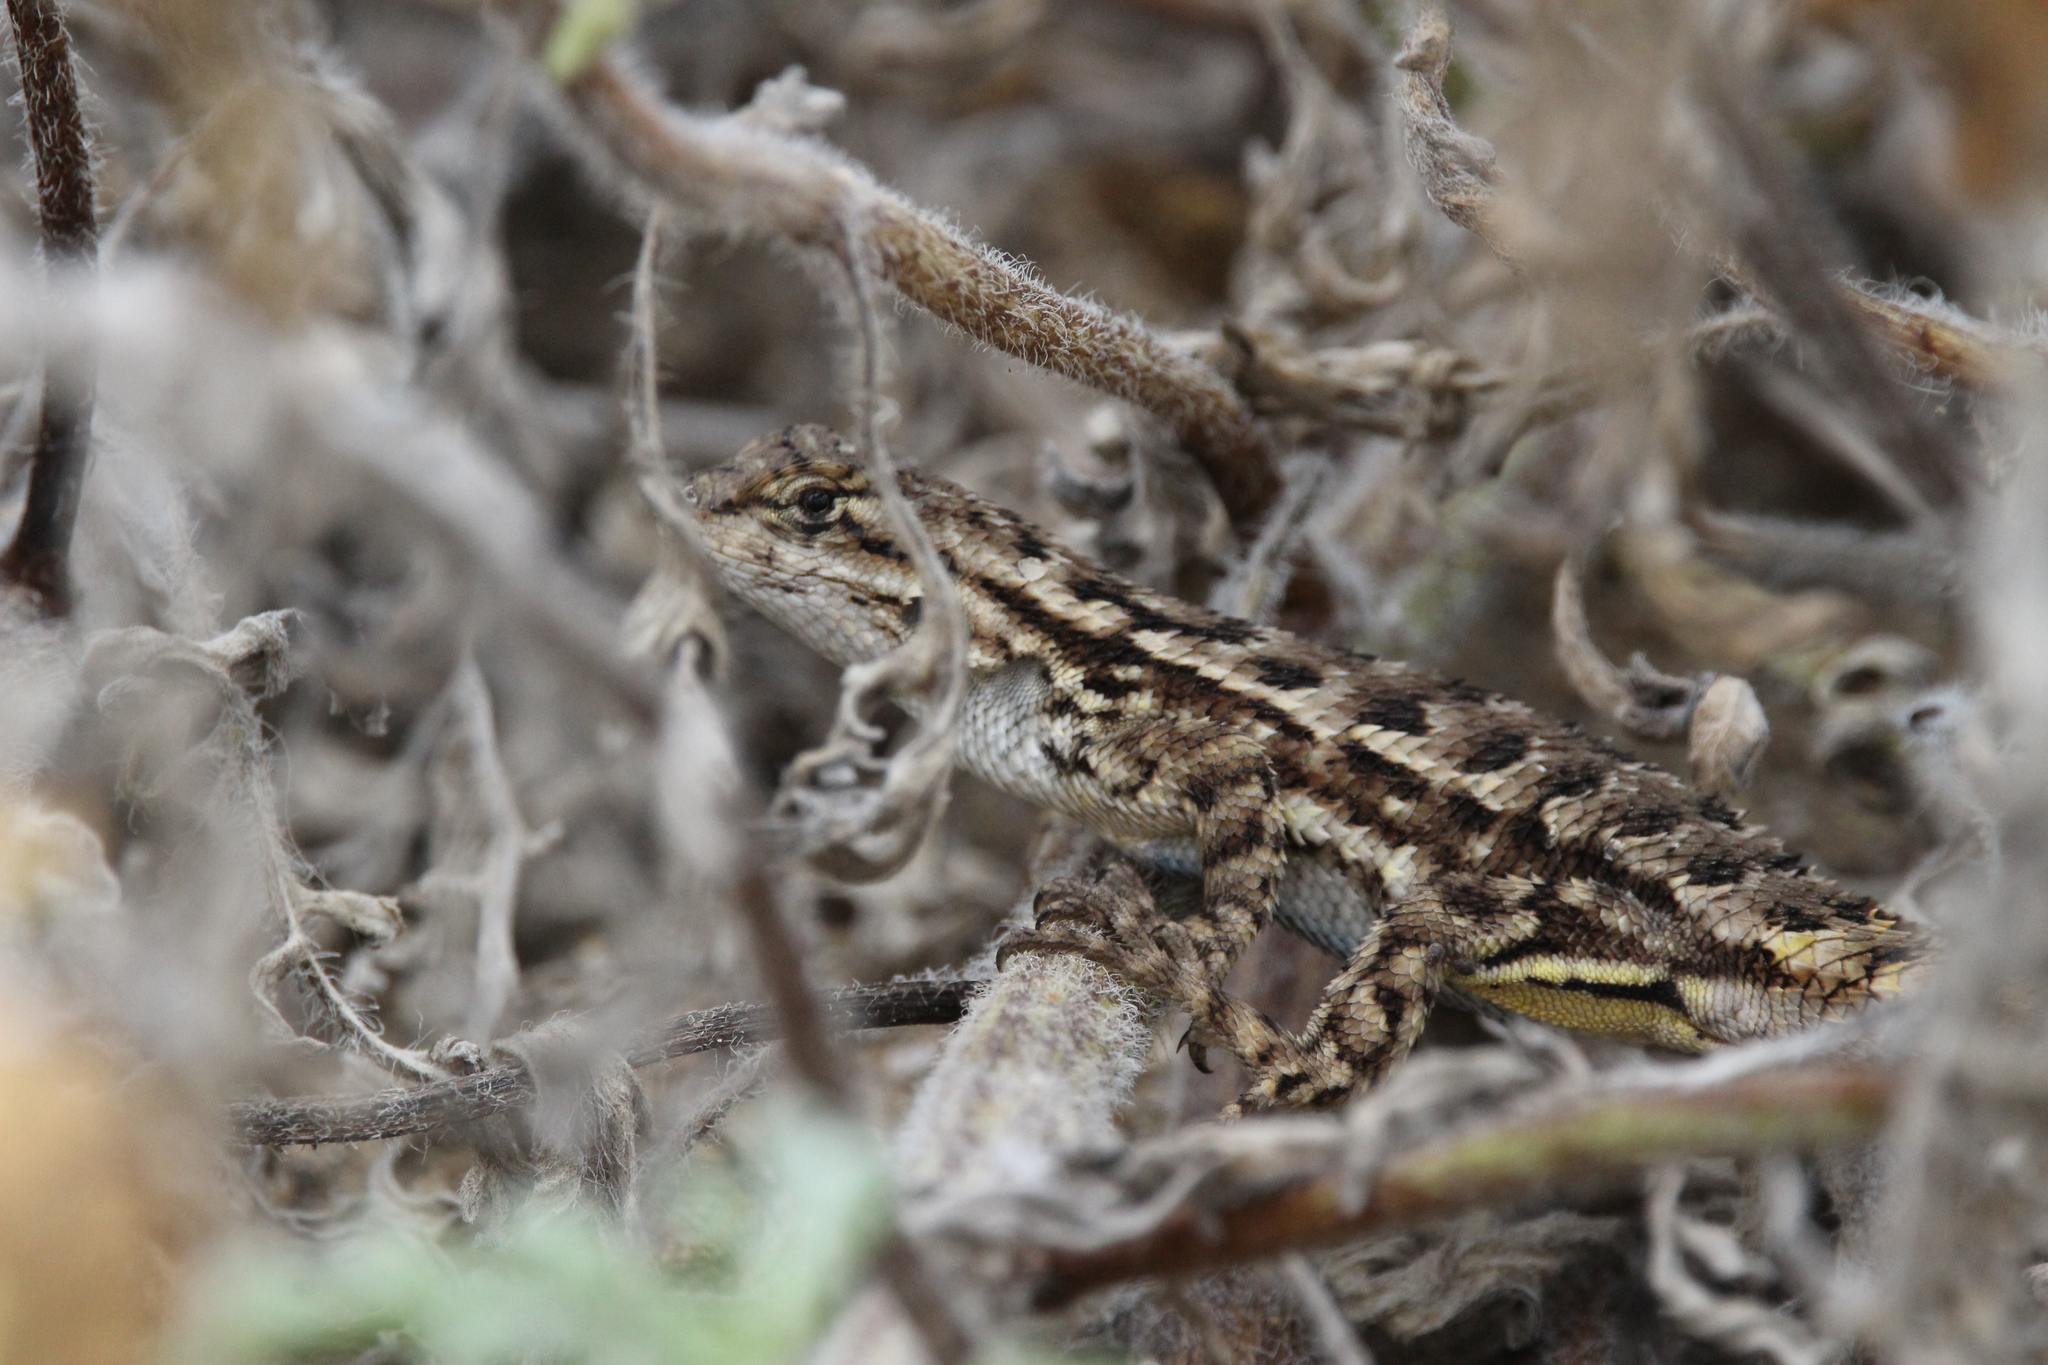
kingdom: Animalia
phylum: Chordata
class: Squamata
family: Phrynosomatidae
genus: Sceloporus
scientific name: Sceloporus occidentalis
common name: Western fence lizard
